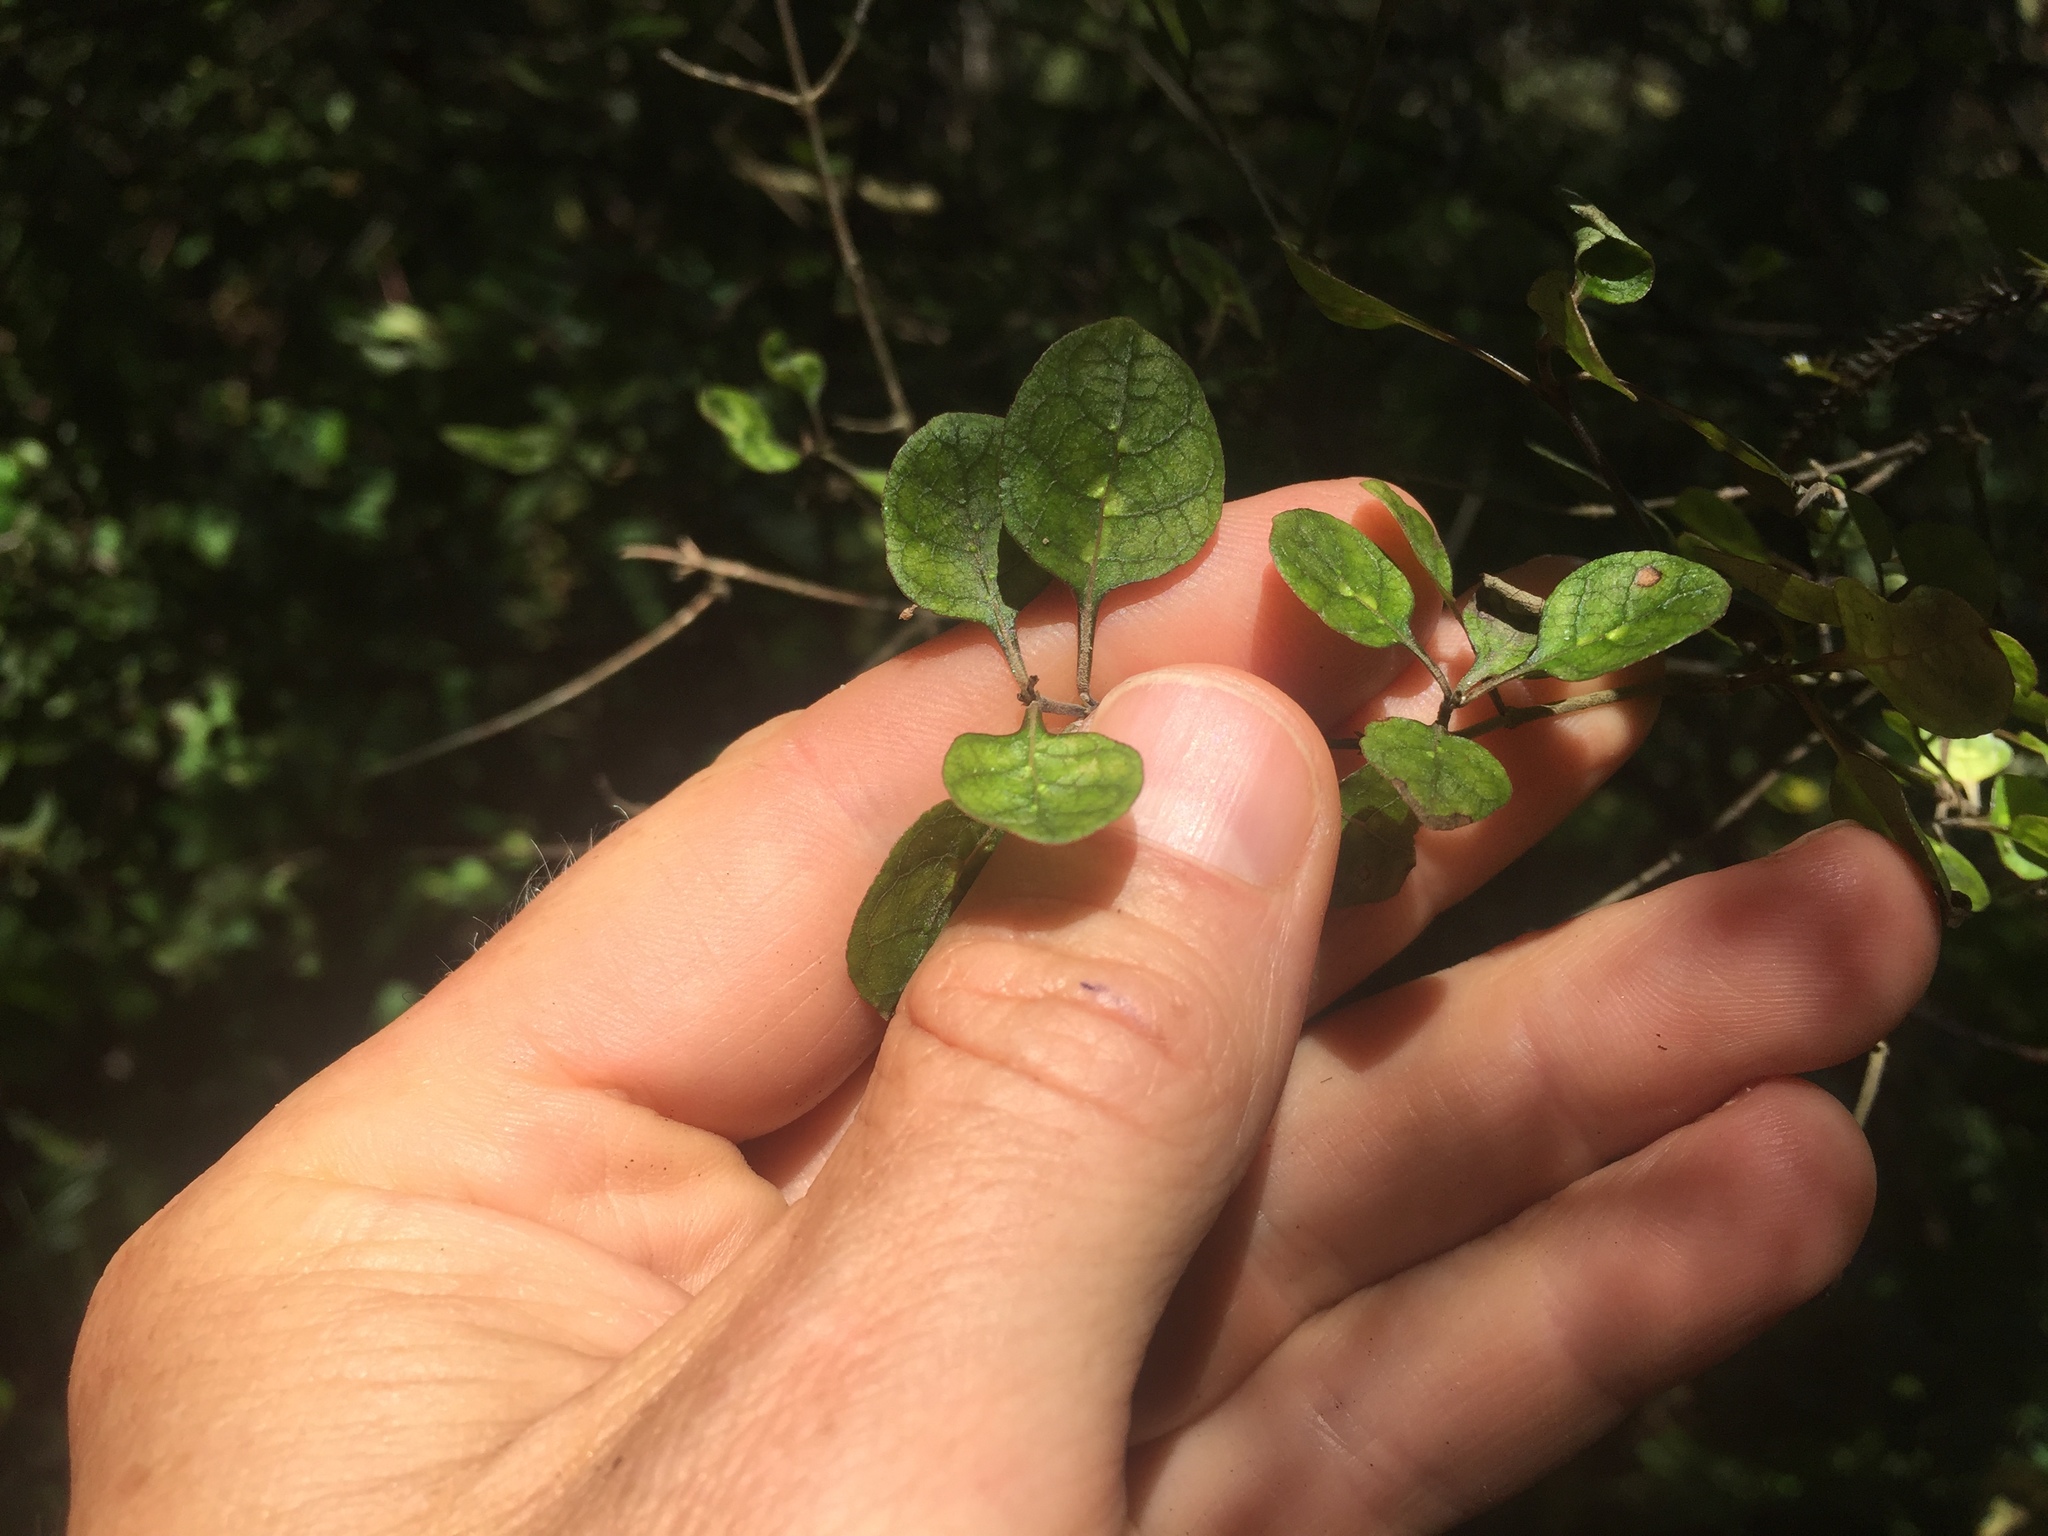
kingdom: Plantae
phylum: Tracheophyta
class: Magnoliopsida
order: Gentianales
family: Rubiaceae
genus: Coprosma
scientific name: Coprosma tenuicaulis
